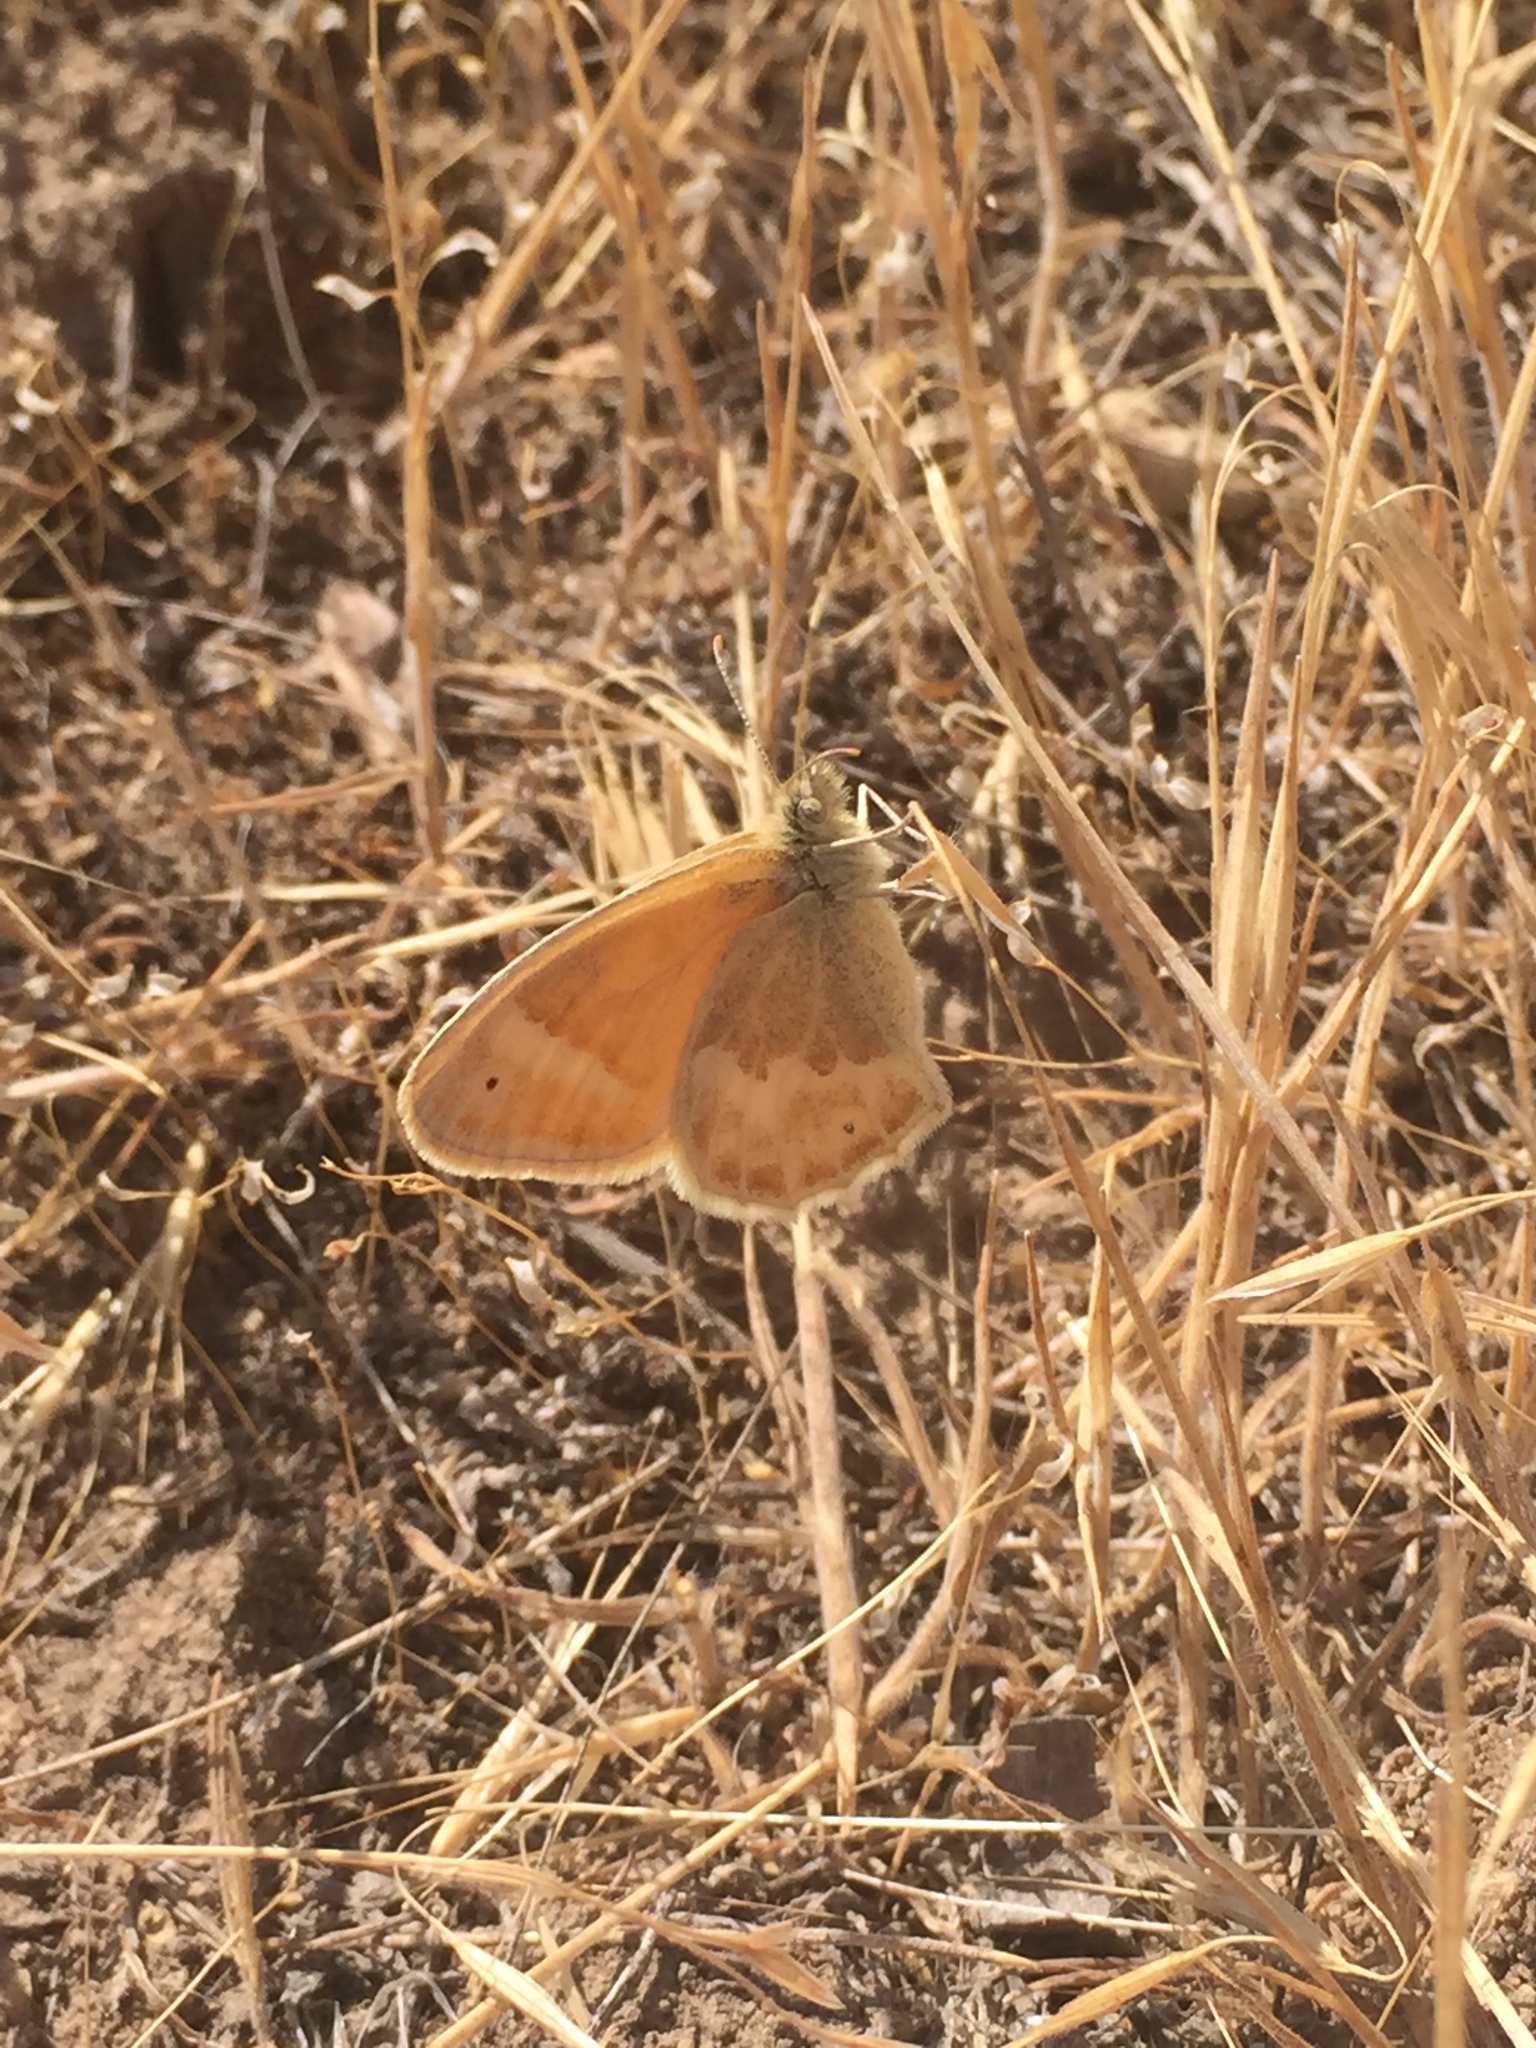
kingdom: Animalia
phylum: Arthropoda
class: Insecta
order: Lepidoptera
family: Nymphalidae
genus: Coenonympha
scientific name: Coenonympha california
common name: Common ringlet
